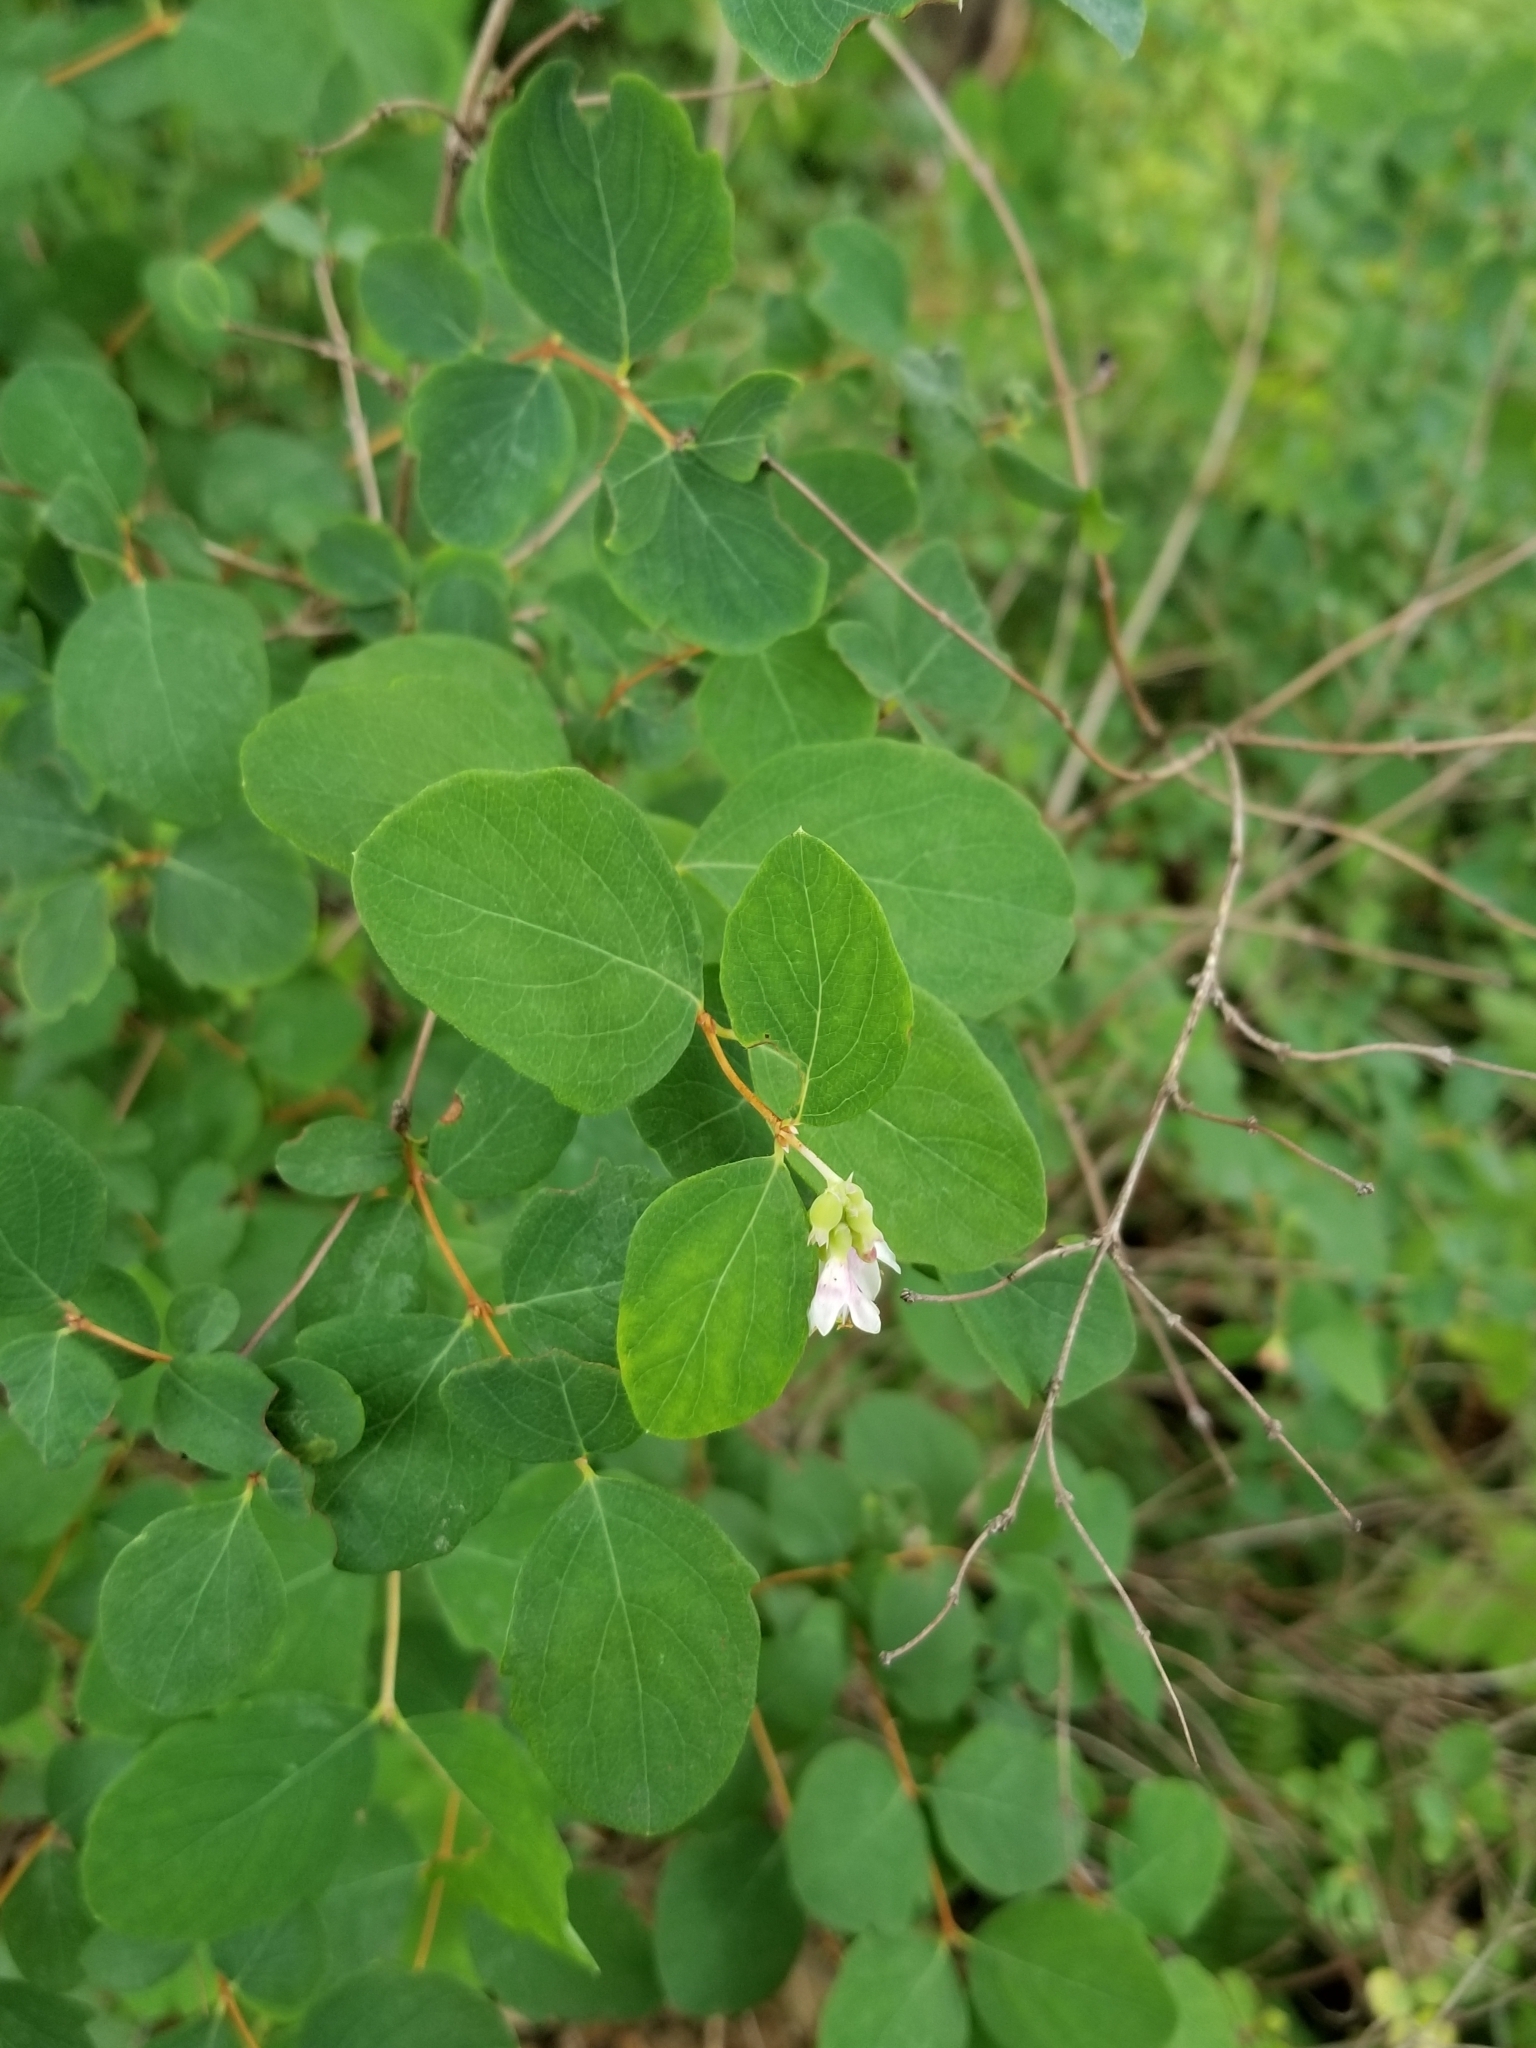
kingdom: Plantae
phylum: Tracheophyta
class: Magnoliopsida
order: Dipsacales
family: Caprifoliaceae
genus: Symphoricarpos
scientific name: Symphoricarpos albus
